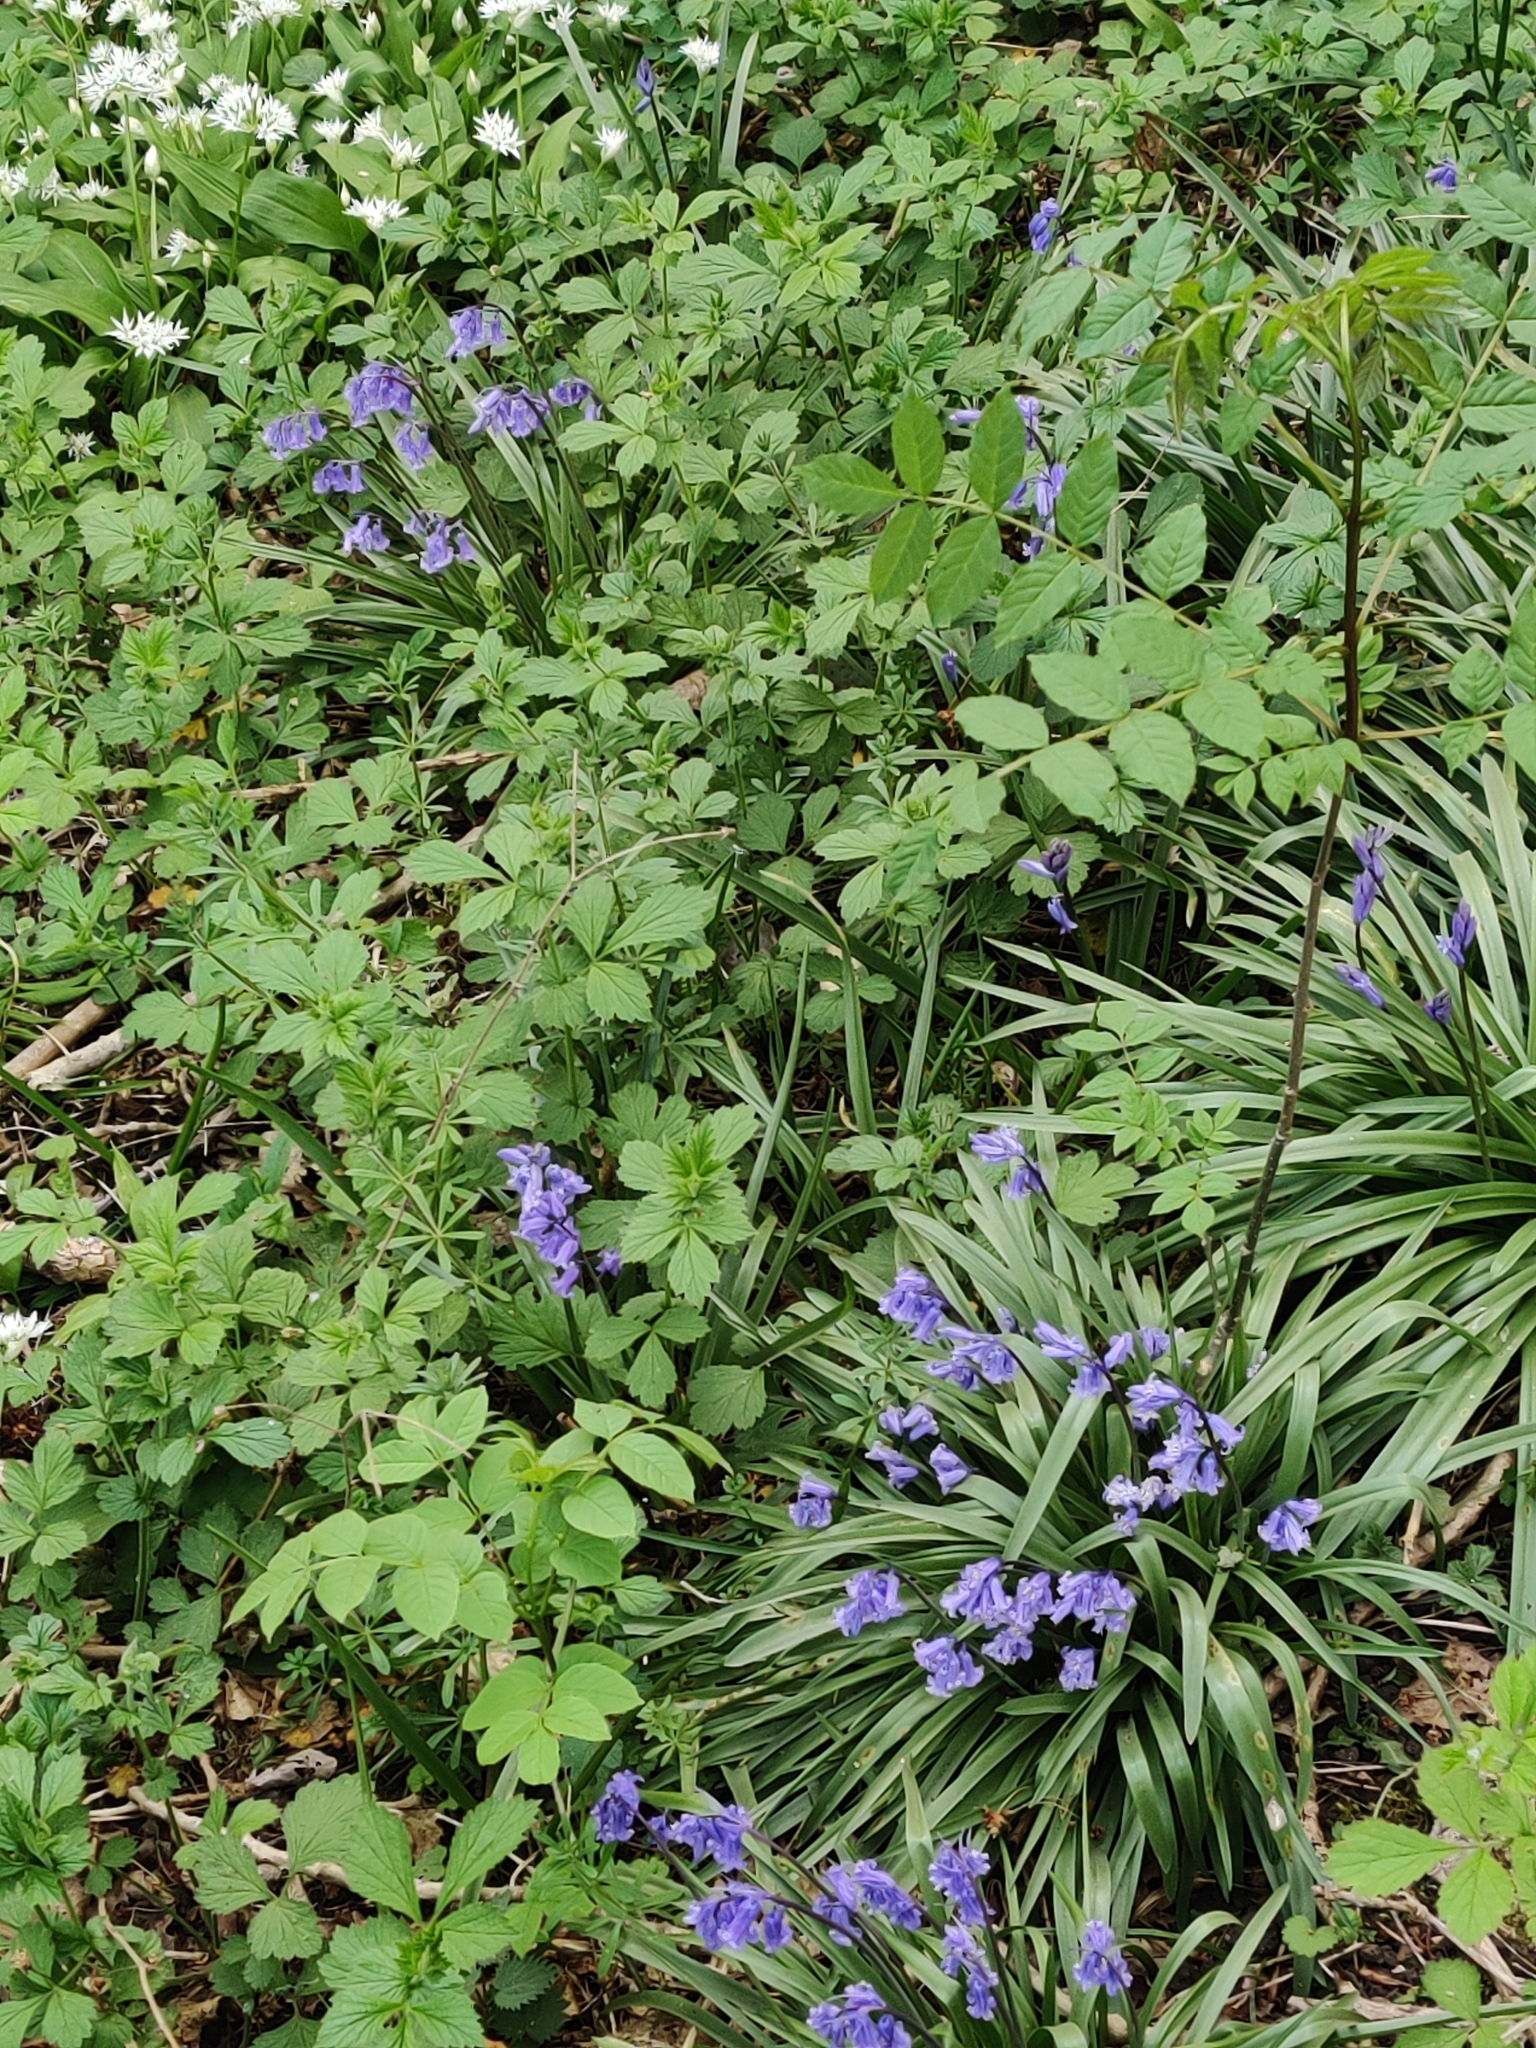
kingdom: Plantae
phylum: Tracheophyta
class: Liliopsida
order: Asparagales
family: Asparagaceae
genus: Hyacinthoides
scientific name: Hyacinthoides non-scripta
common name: Bluebell
